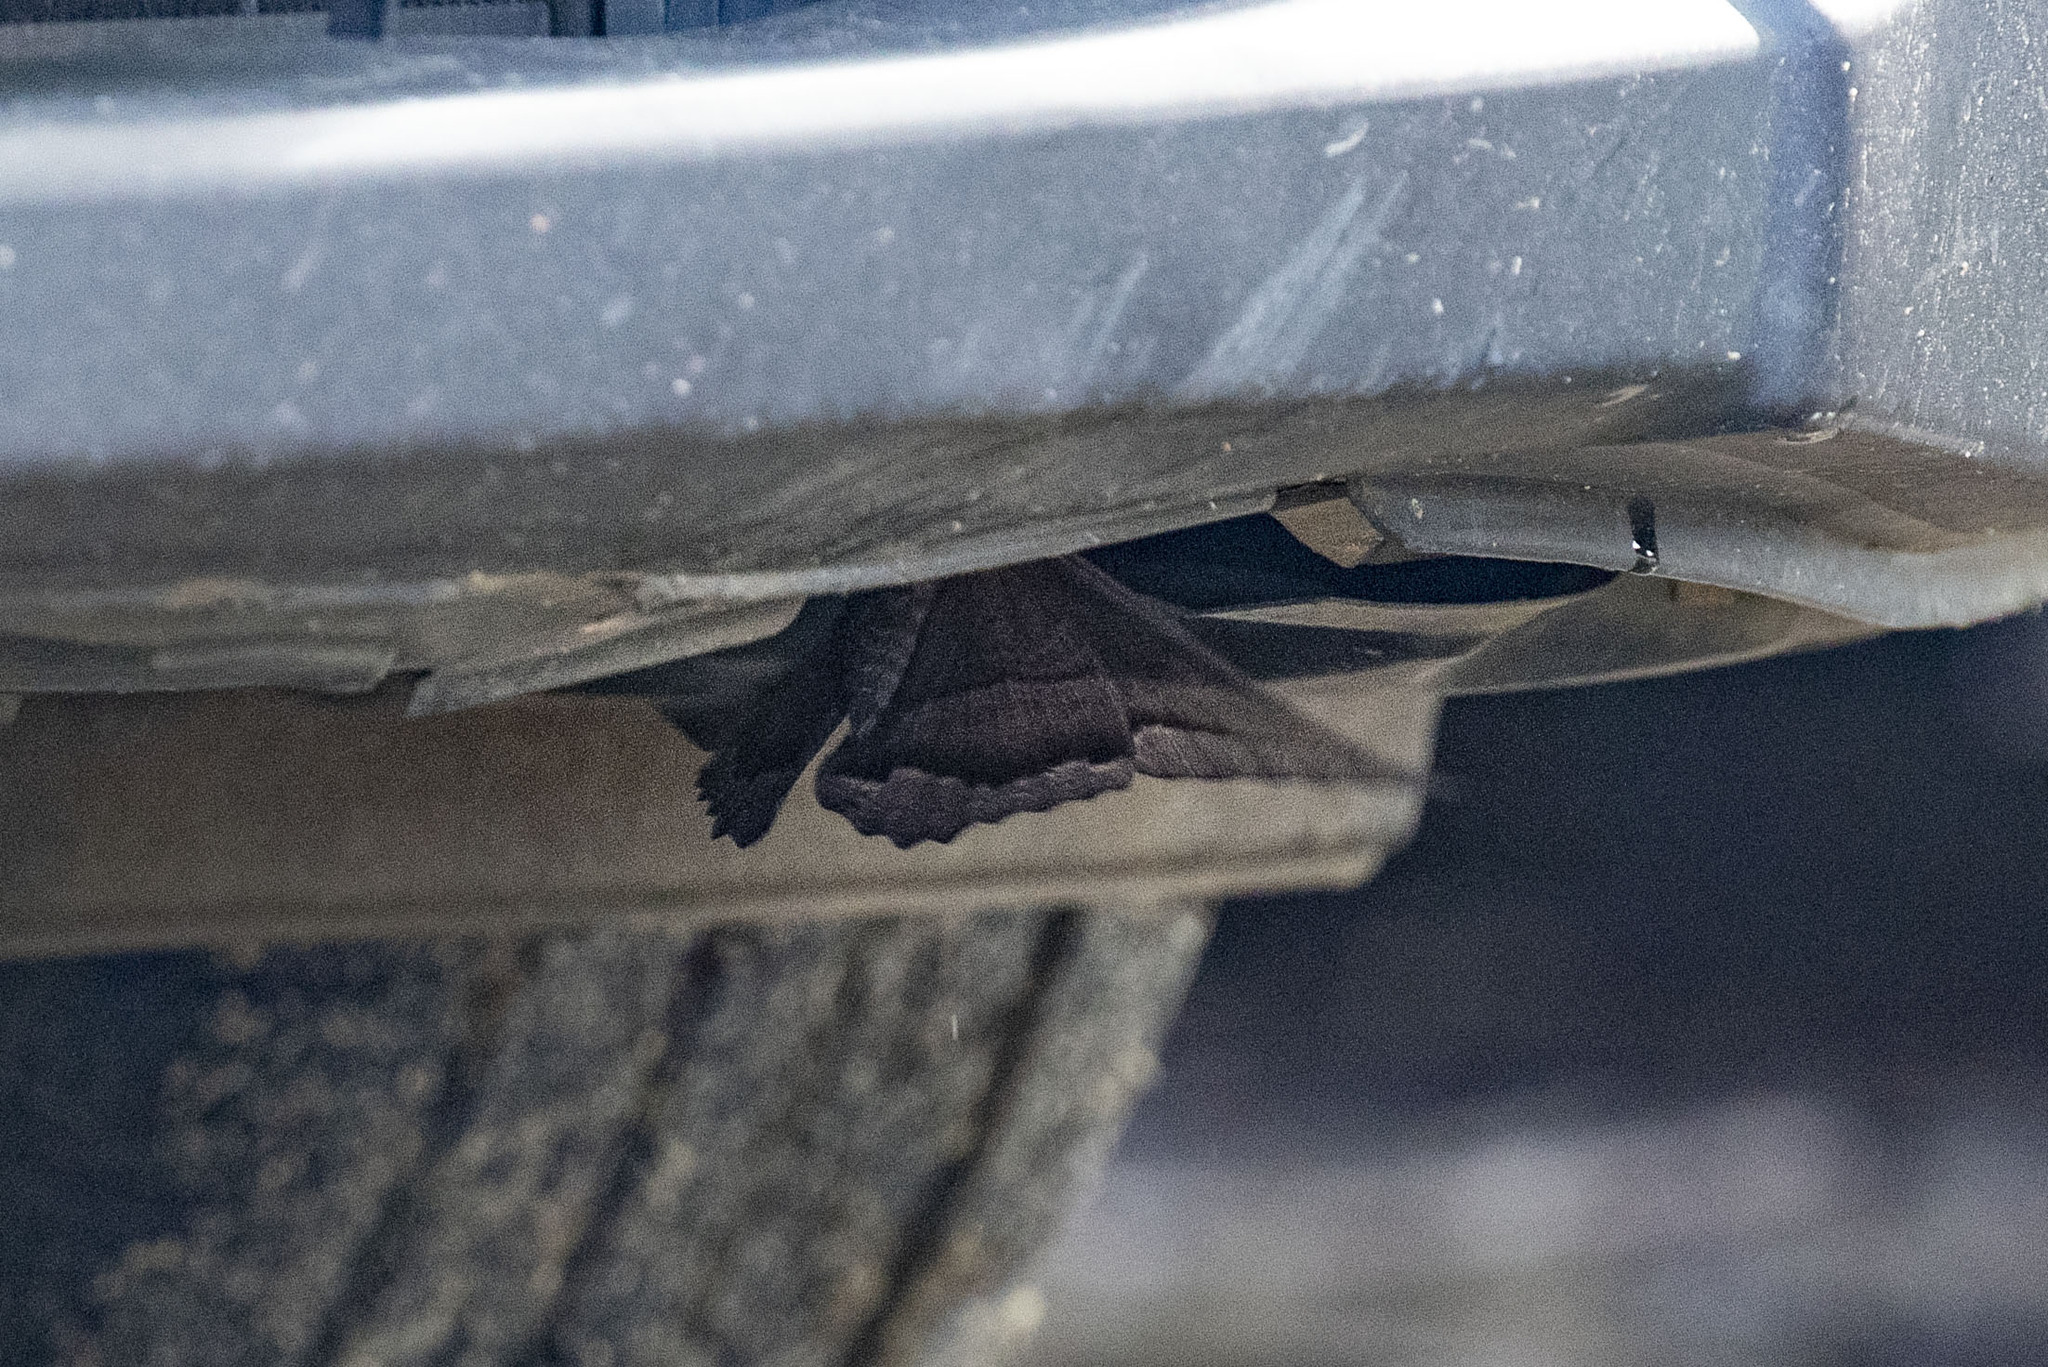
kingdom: Animalia
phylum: Arthropoda
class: Insecta
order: Lepidoptera
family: Erebidae
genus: Ascalapha
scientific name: Ascalapha odorata
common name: Black witch
